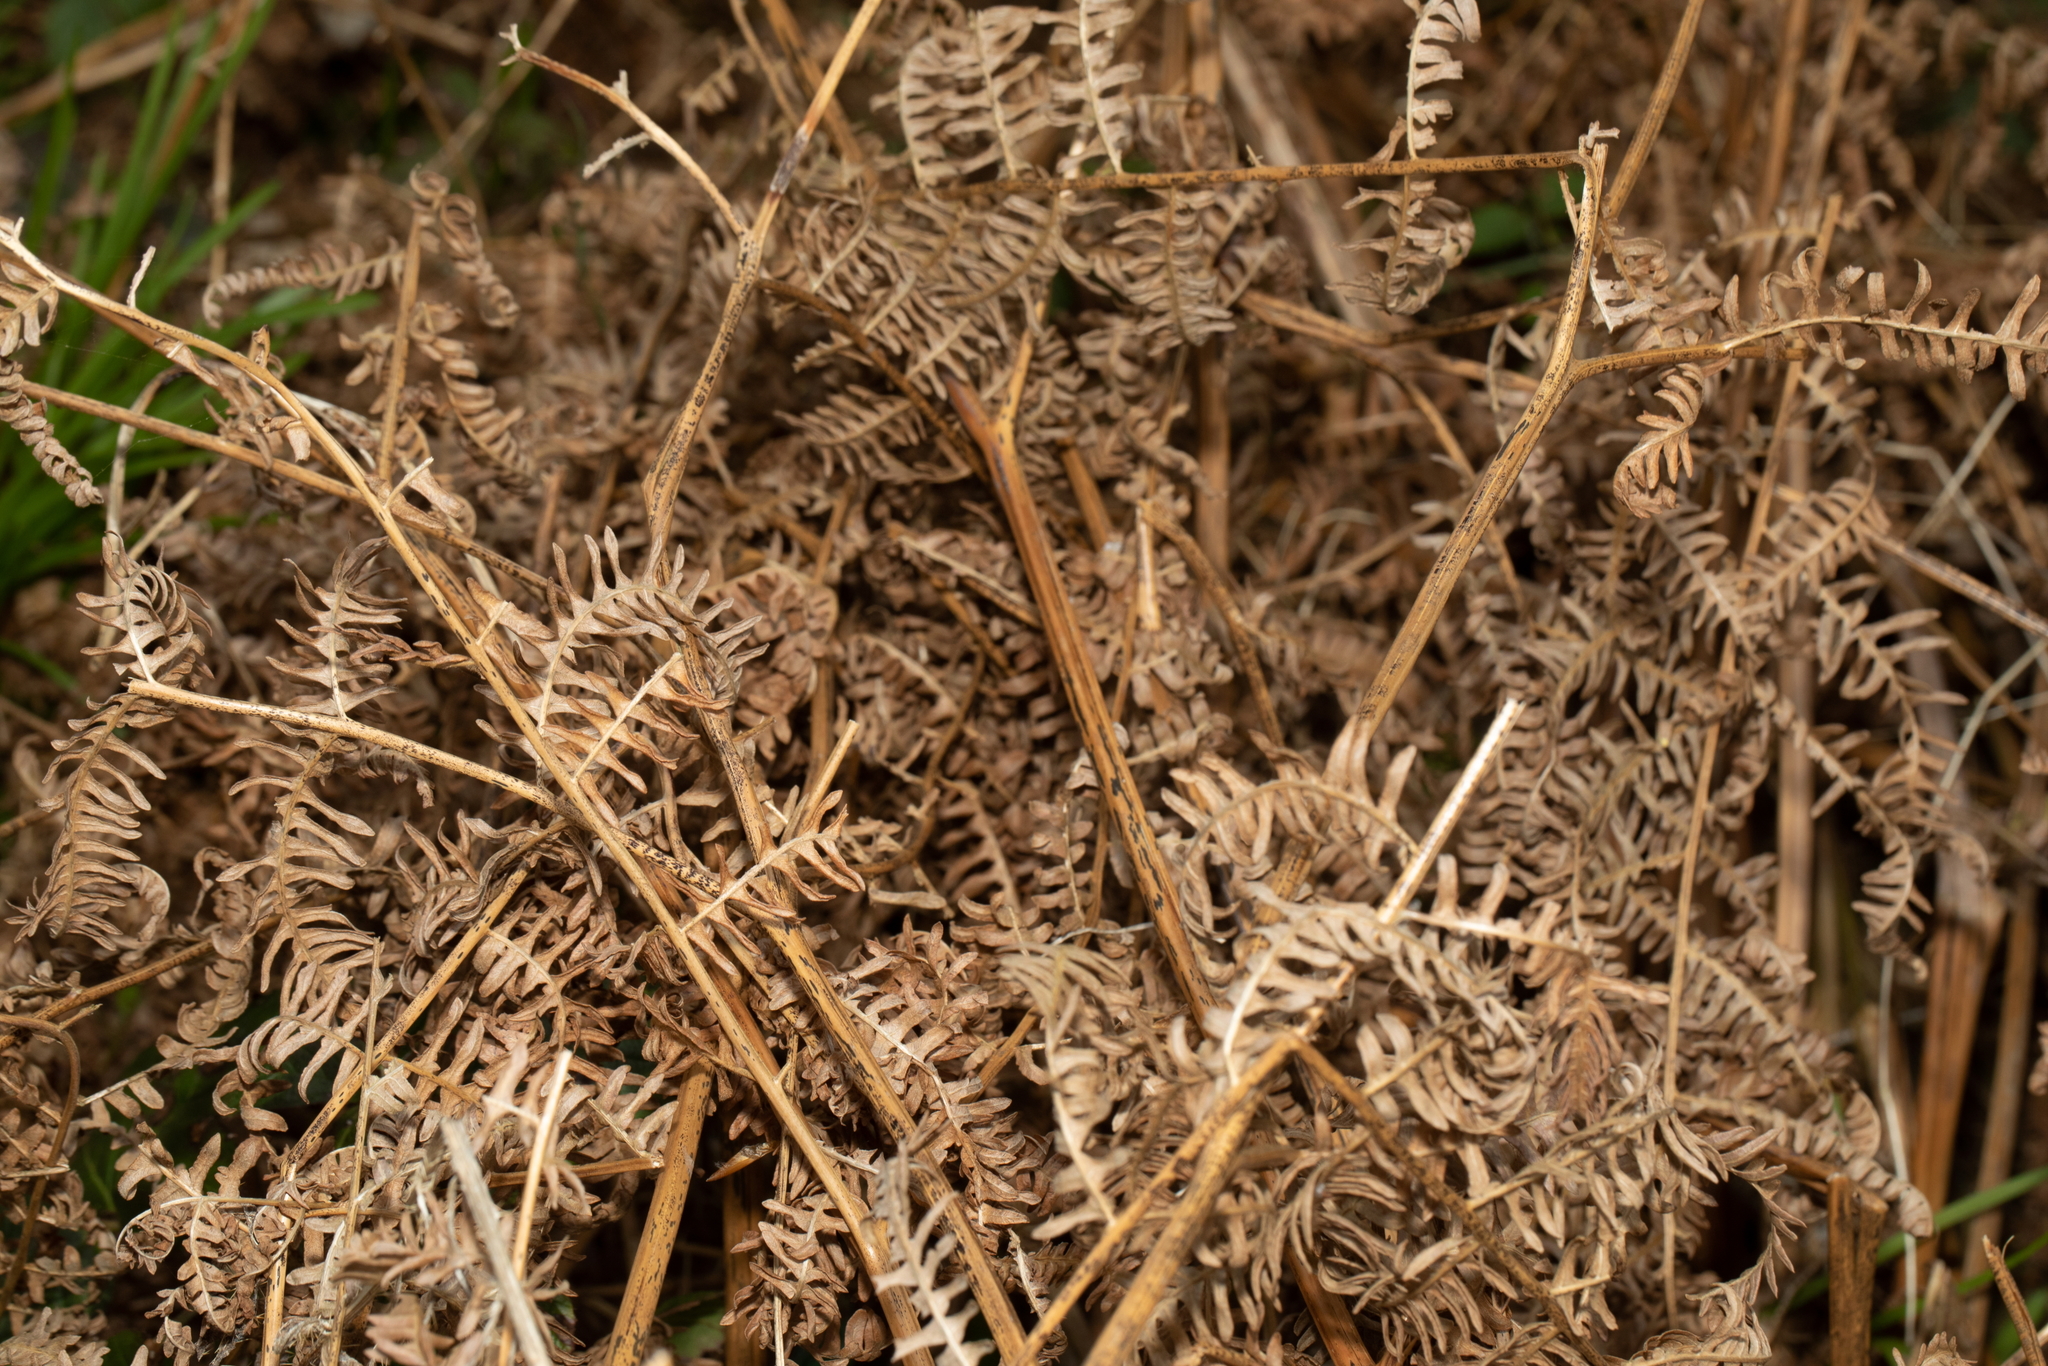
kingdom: Plantae
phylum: Tracheophyta
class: Polypodiopsida
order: Polypodiales
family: Dennstaedtiaceae
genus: Pteridium
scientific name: Pteridium aquilinum
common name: Bracken
